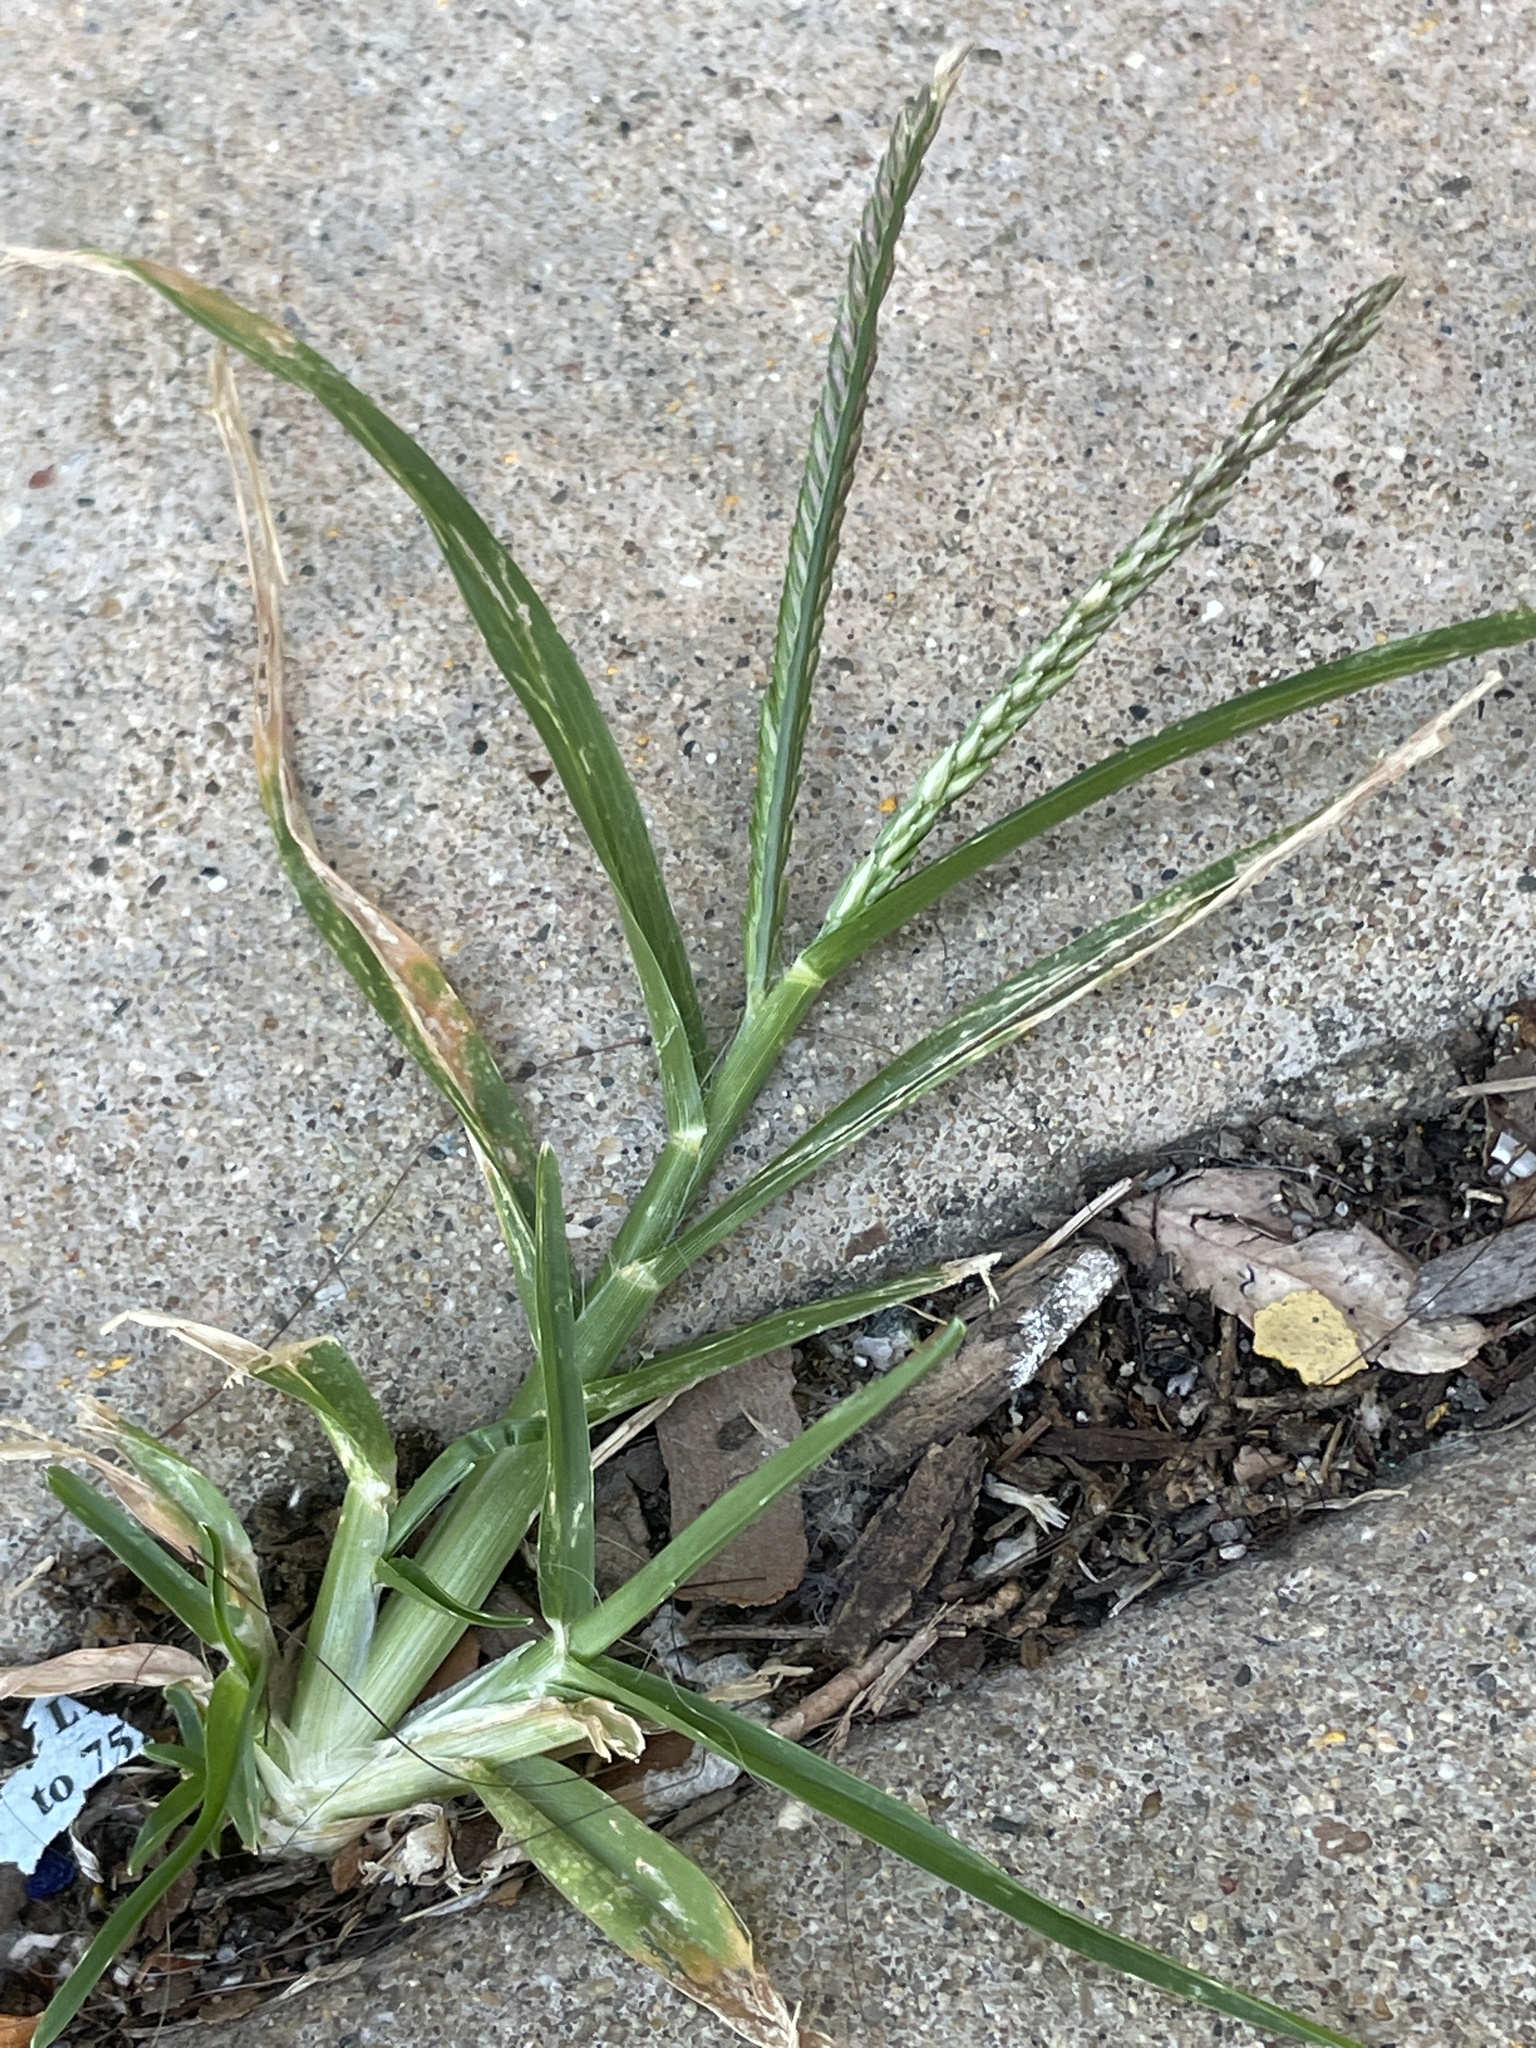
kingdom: Plantae
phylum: Tracheophyta
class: Liliopsida
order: Poales
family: Poaceae
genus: Eleusine
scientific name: Eleusine indica
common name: Yard-grass
